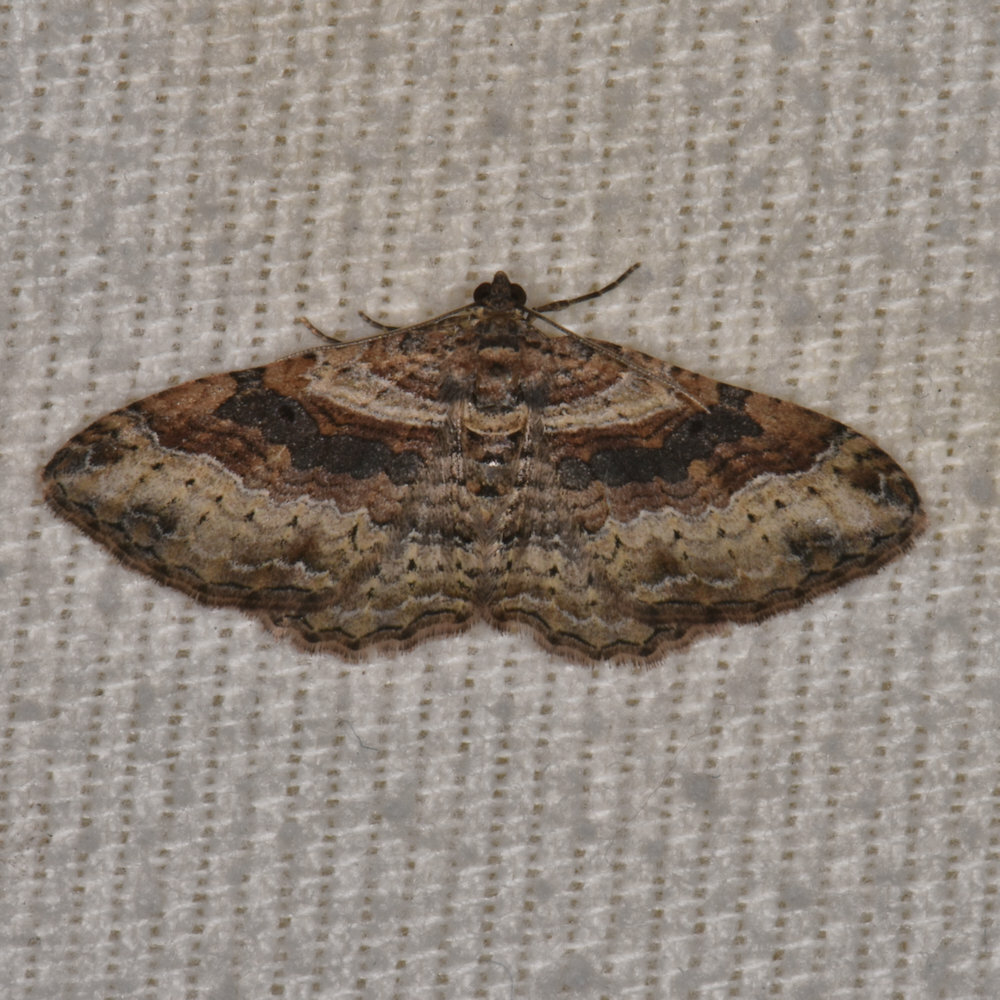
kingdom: Animalia
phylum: Arthropoda
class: Insecta
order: Lepidoptera
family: Geometridae
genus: Costaconvexa
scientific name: Costaconvexa centrostrigaria
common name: Bent-line carpet
